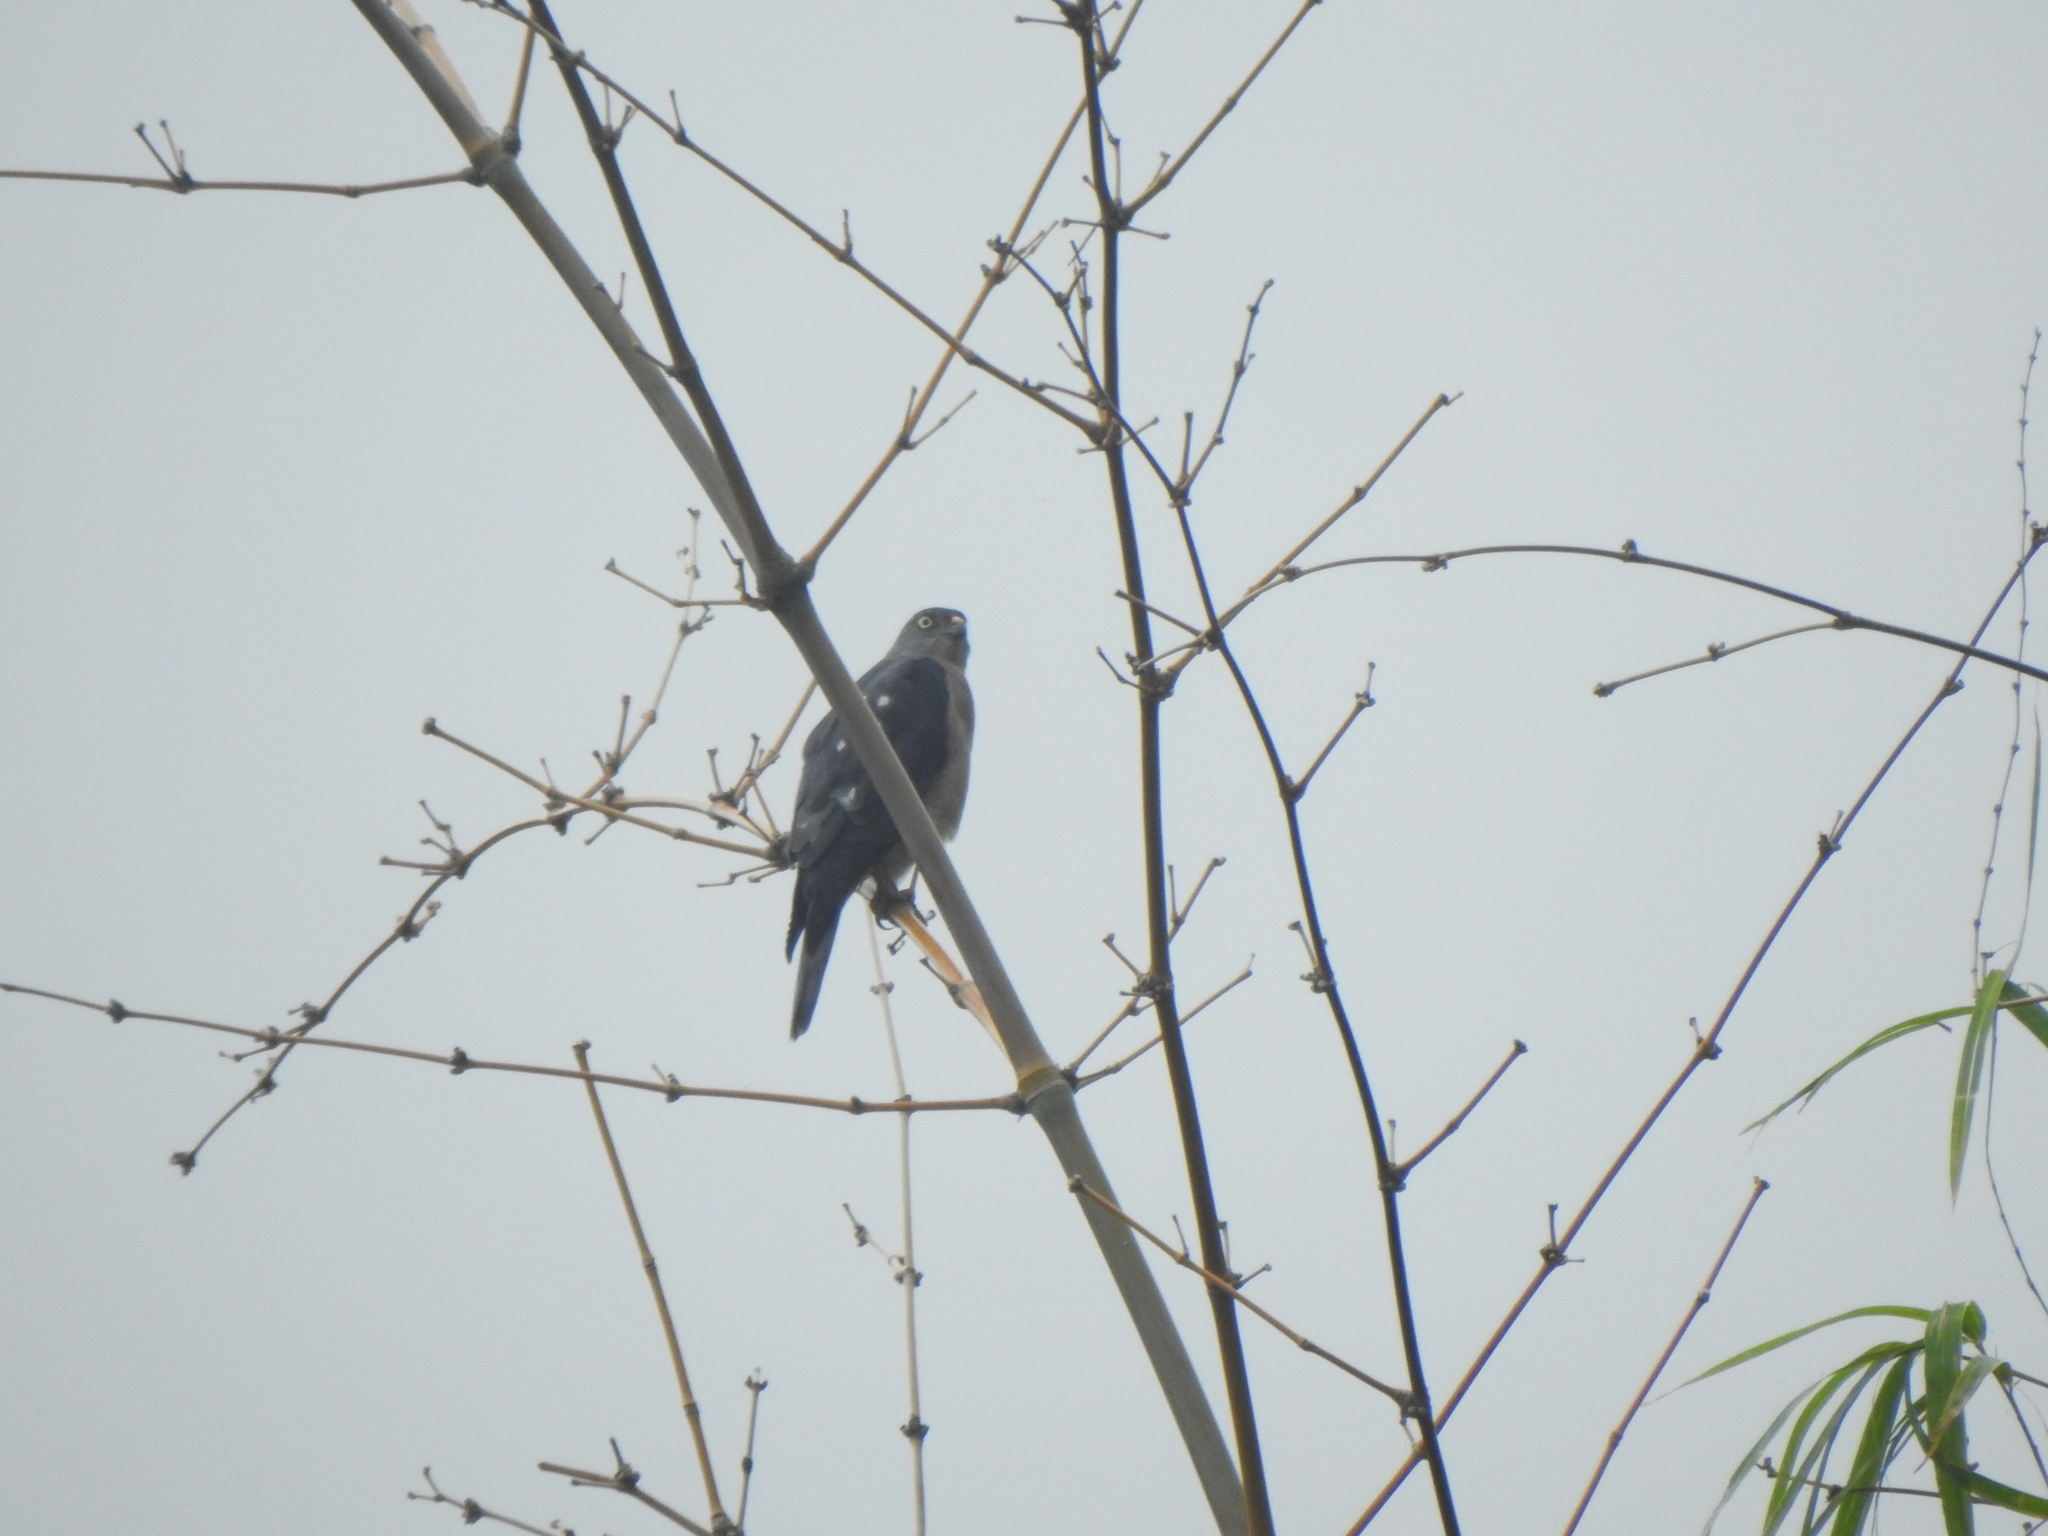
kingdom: Animalia
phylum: Chordata
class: Aves
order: Accipitriformes
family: Accipitridae
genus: Accipiter
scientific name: Accipiter soloensis
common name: Chinese sparrowhawk
